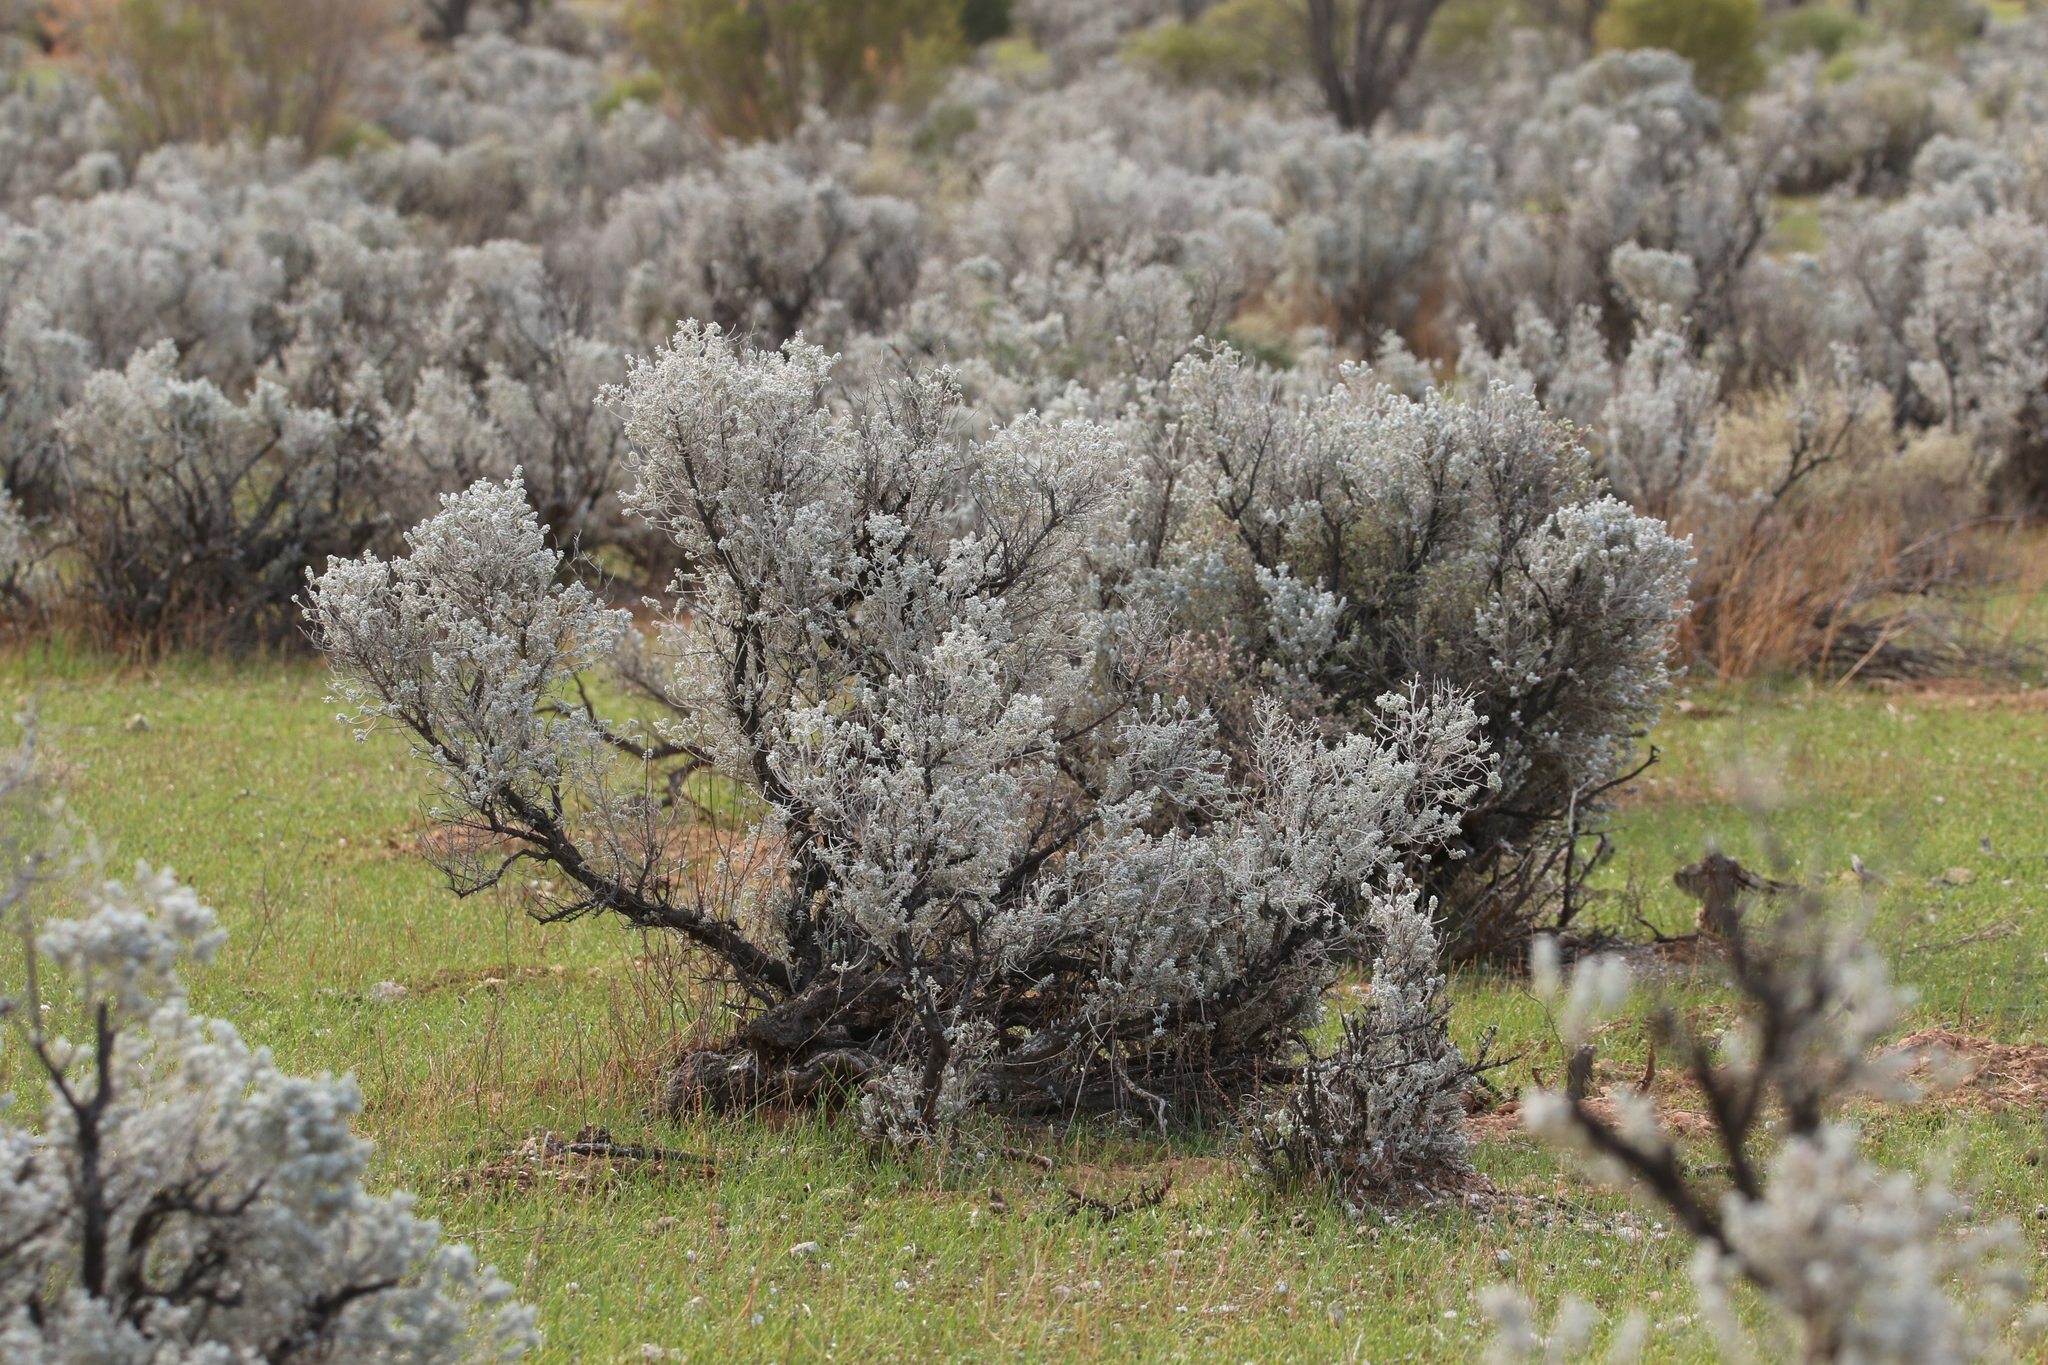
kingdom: Plantae
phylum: Tracheophyta
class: Magnoliopsida
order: Caryophyllales
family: Amaranthaceae
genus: Maireana
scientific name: Maireana sedifolia
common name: Hoary bluebush
